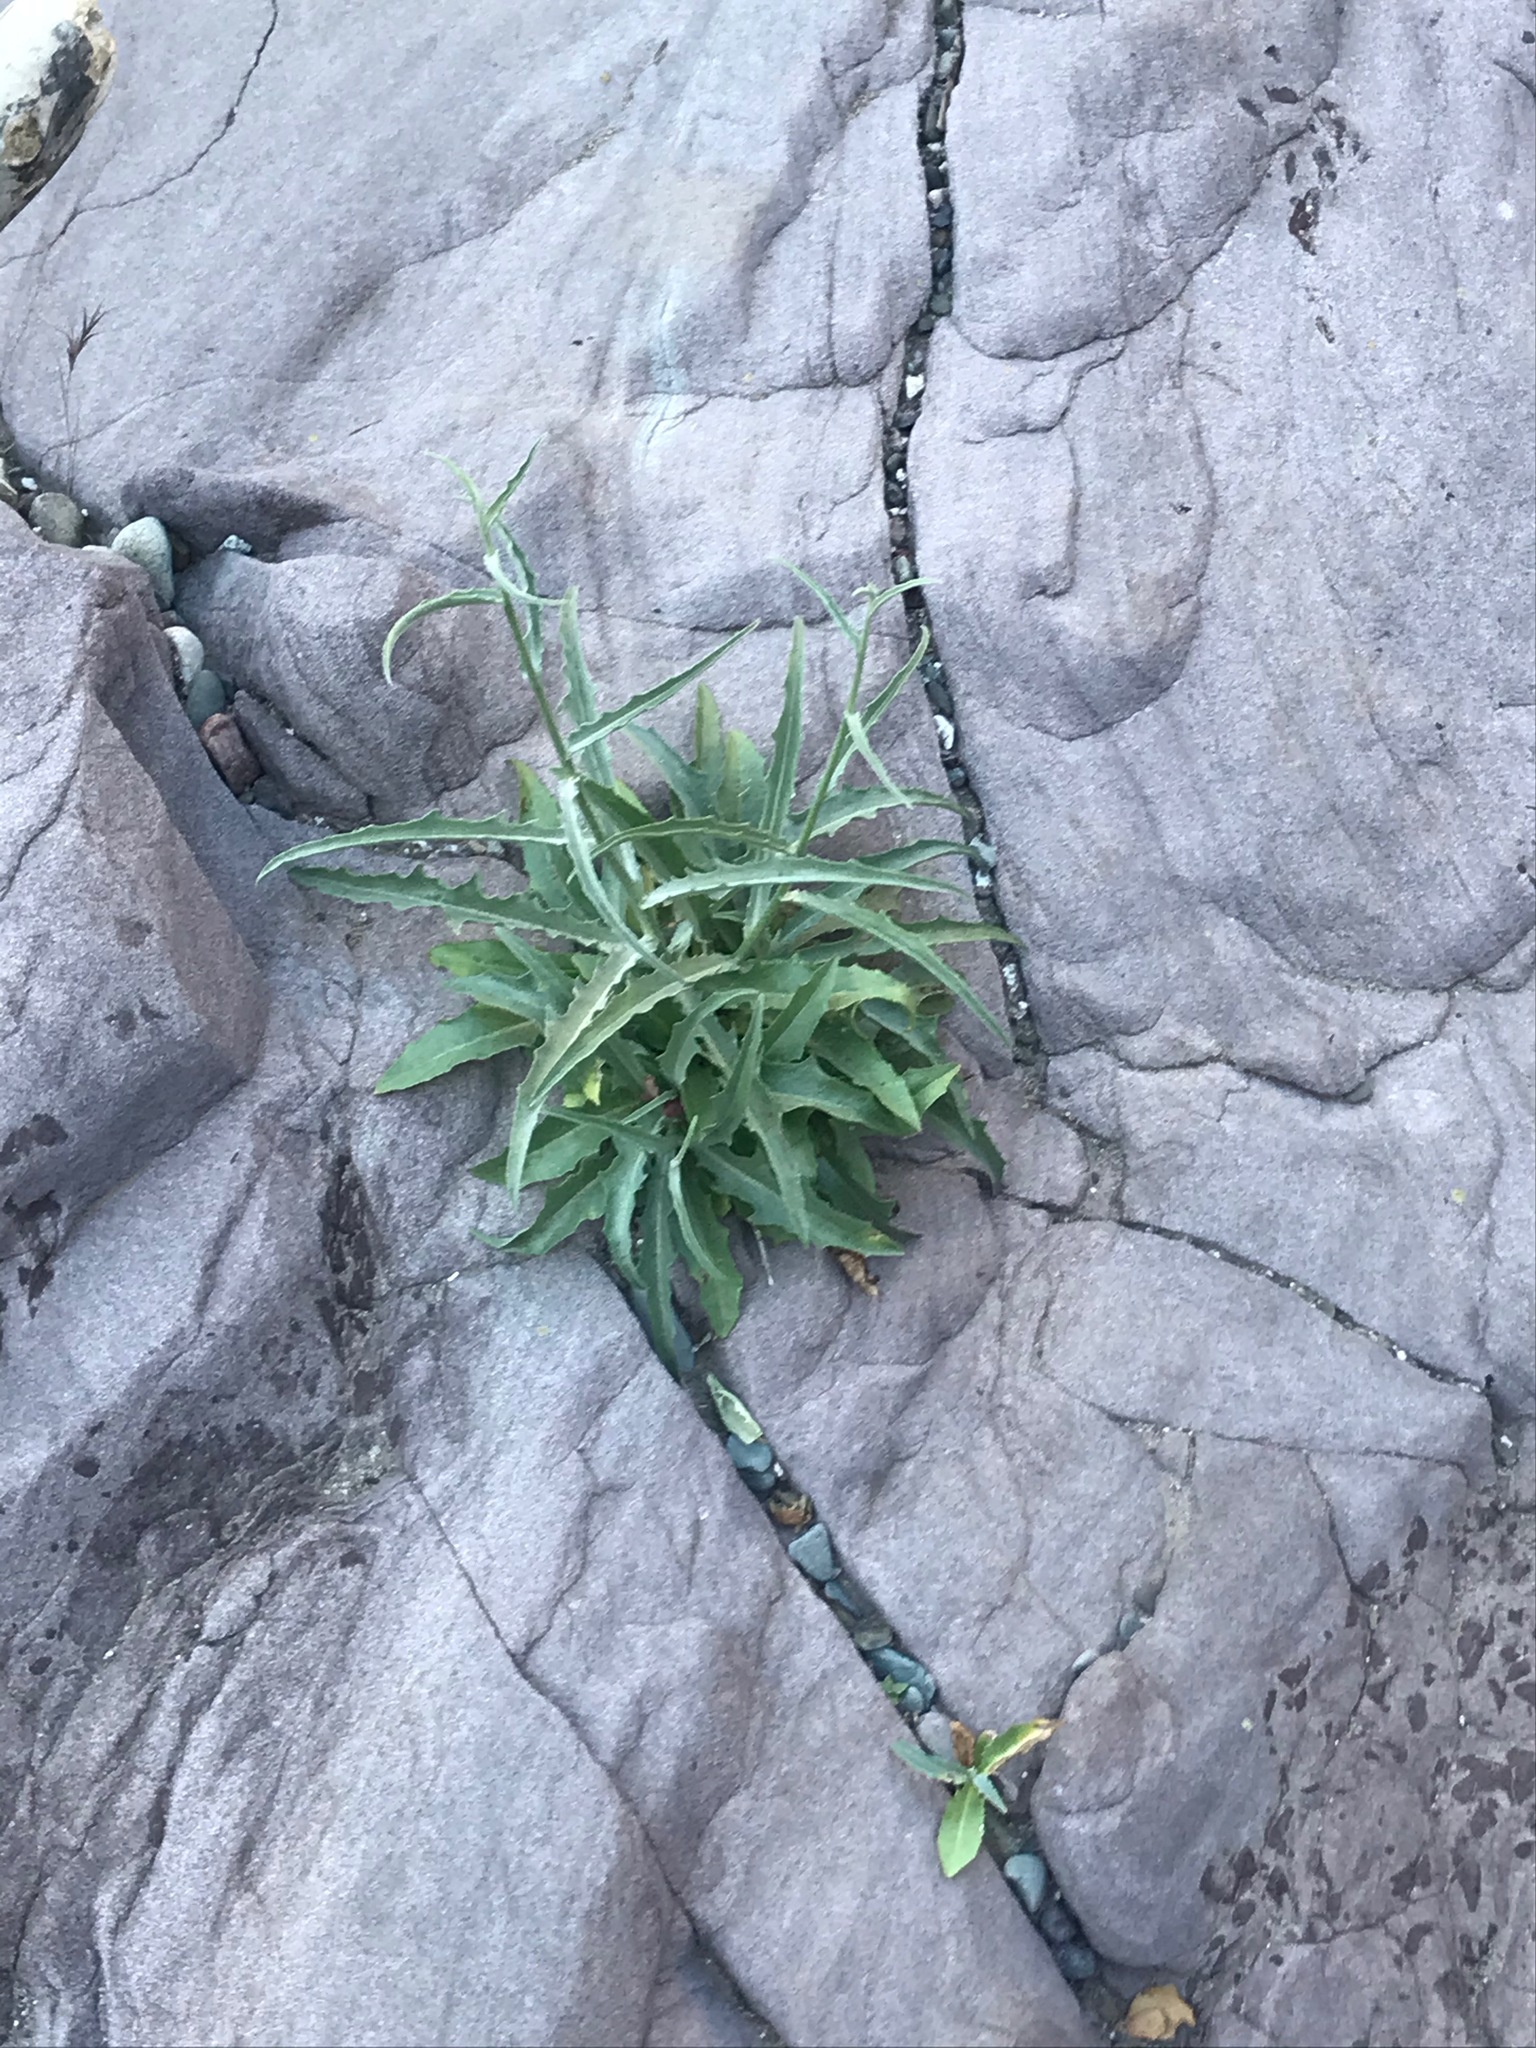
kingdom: Plantae
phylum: Tracheophyta
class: Magnoliopsida
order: Asterales
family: Asteraceae
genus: Stephanomeria
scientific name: Stephanomeria cichoriacea
